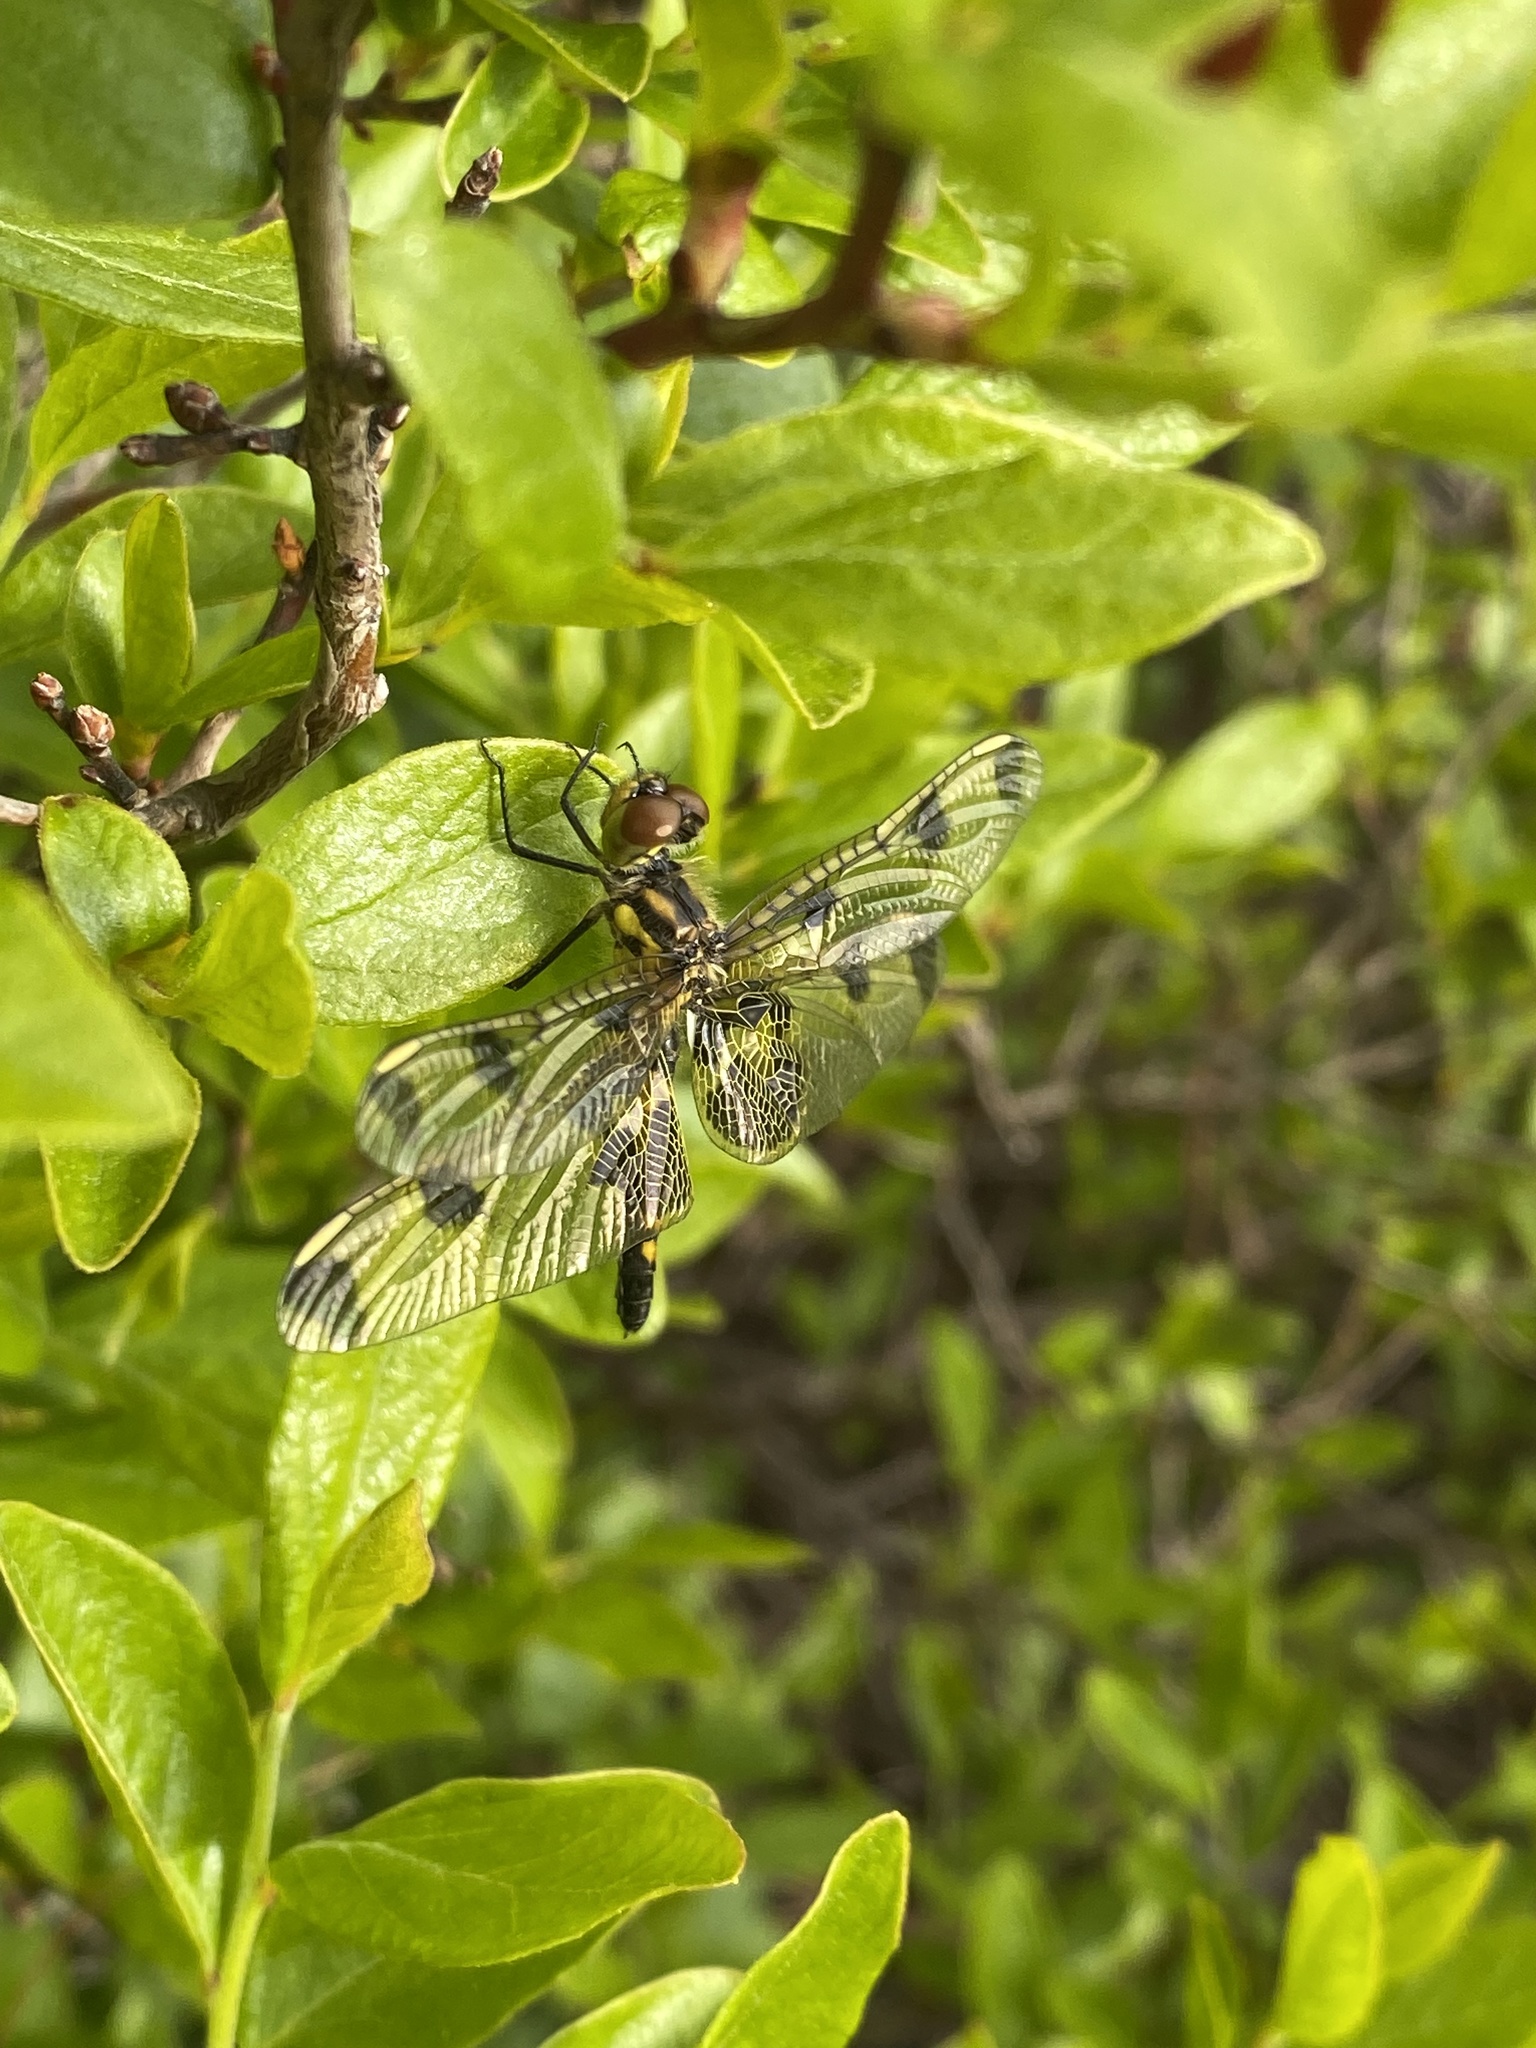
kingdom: Animalia
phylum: Arthropoda
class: Insecta
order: Odonata
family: Libellulidae
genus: Celithemis
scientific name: Celithemis elisa
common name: Calico pennant
